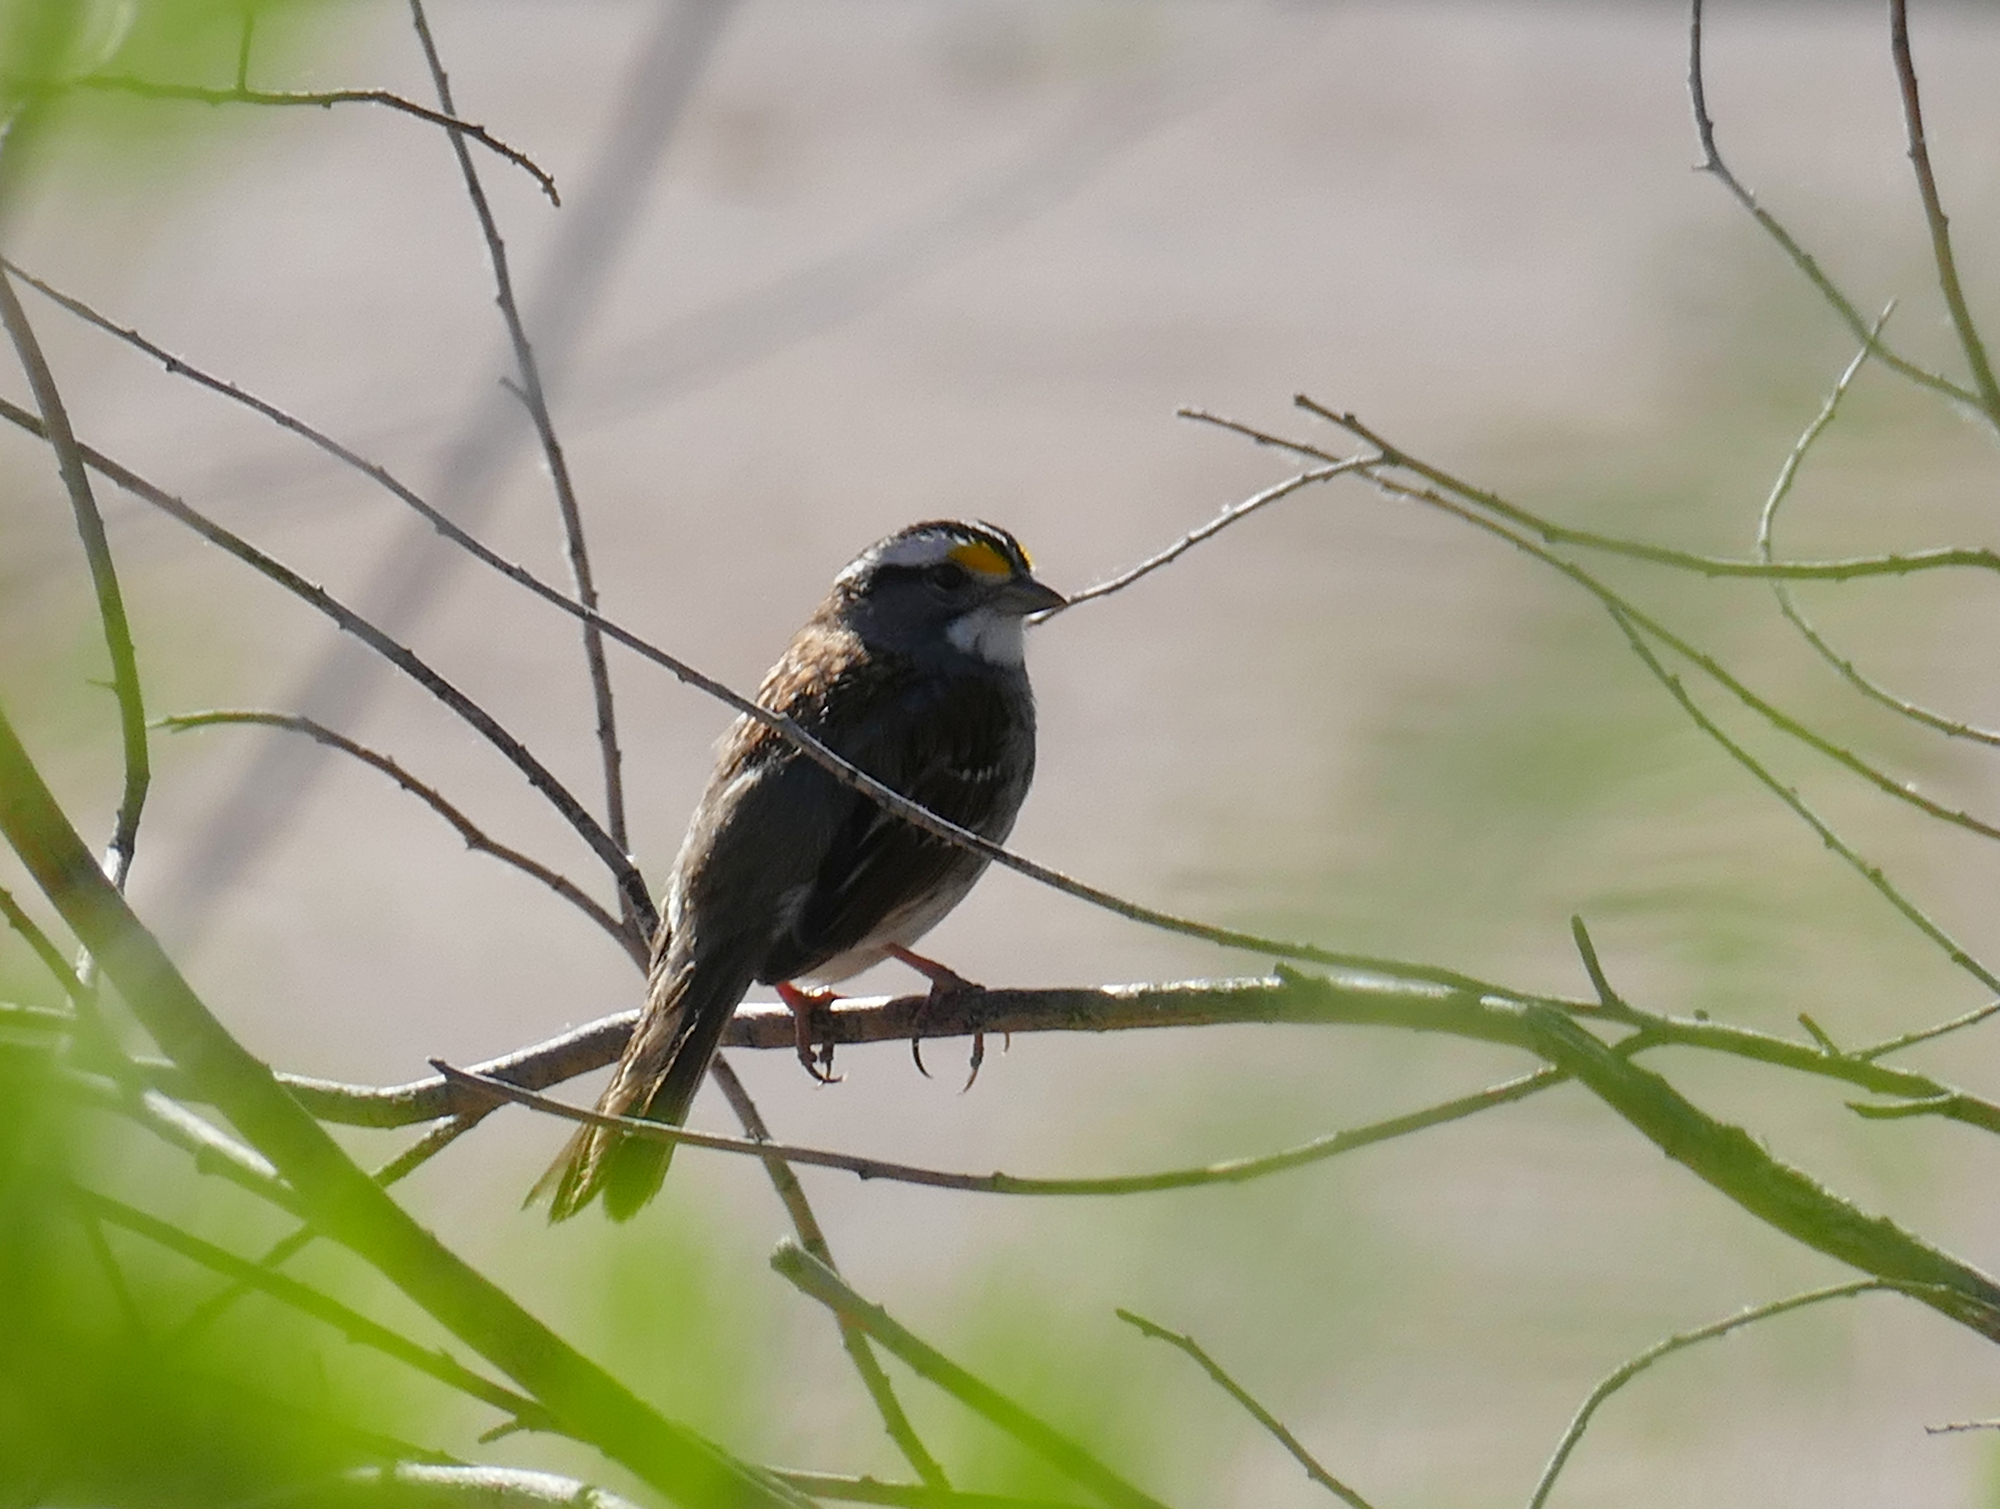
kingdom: Animalia
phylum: Chordata
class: Aves
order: Passeriformes
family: Passerellidae
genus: Zonotrichia
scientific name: Zonotrichia albicollis
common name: White-throated sparrow
